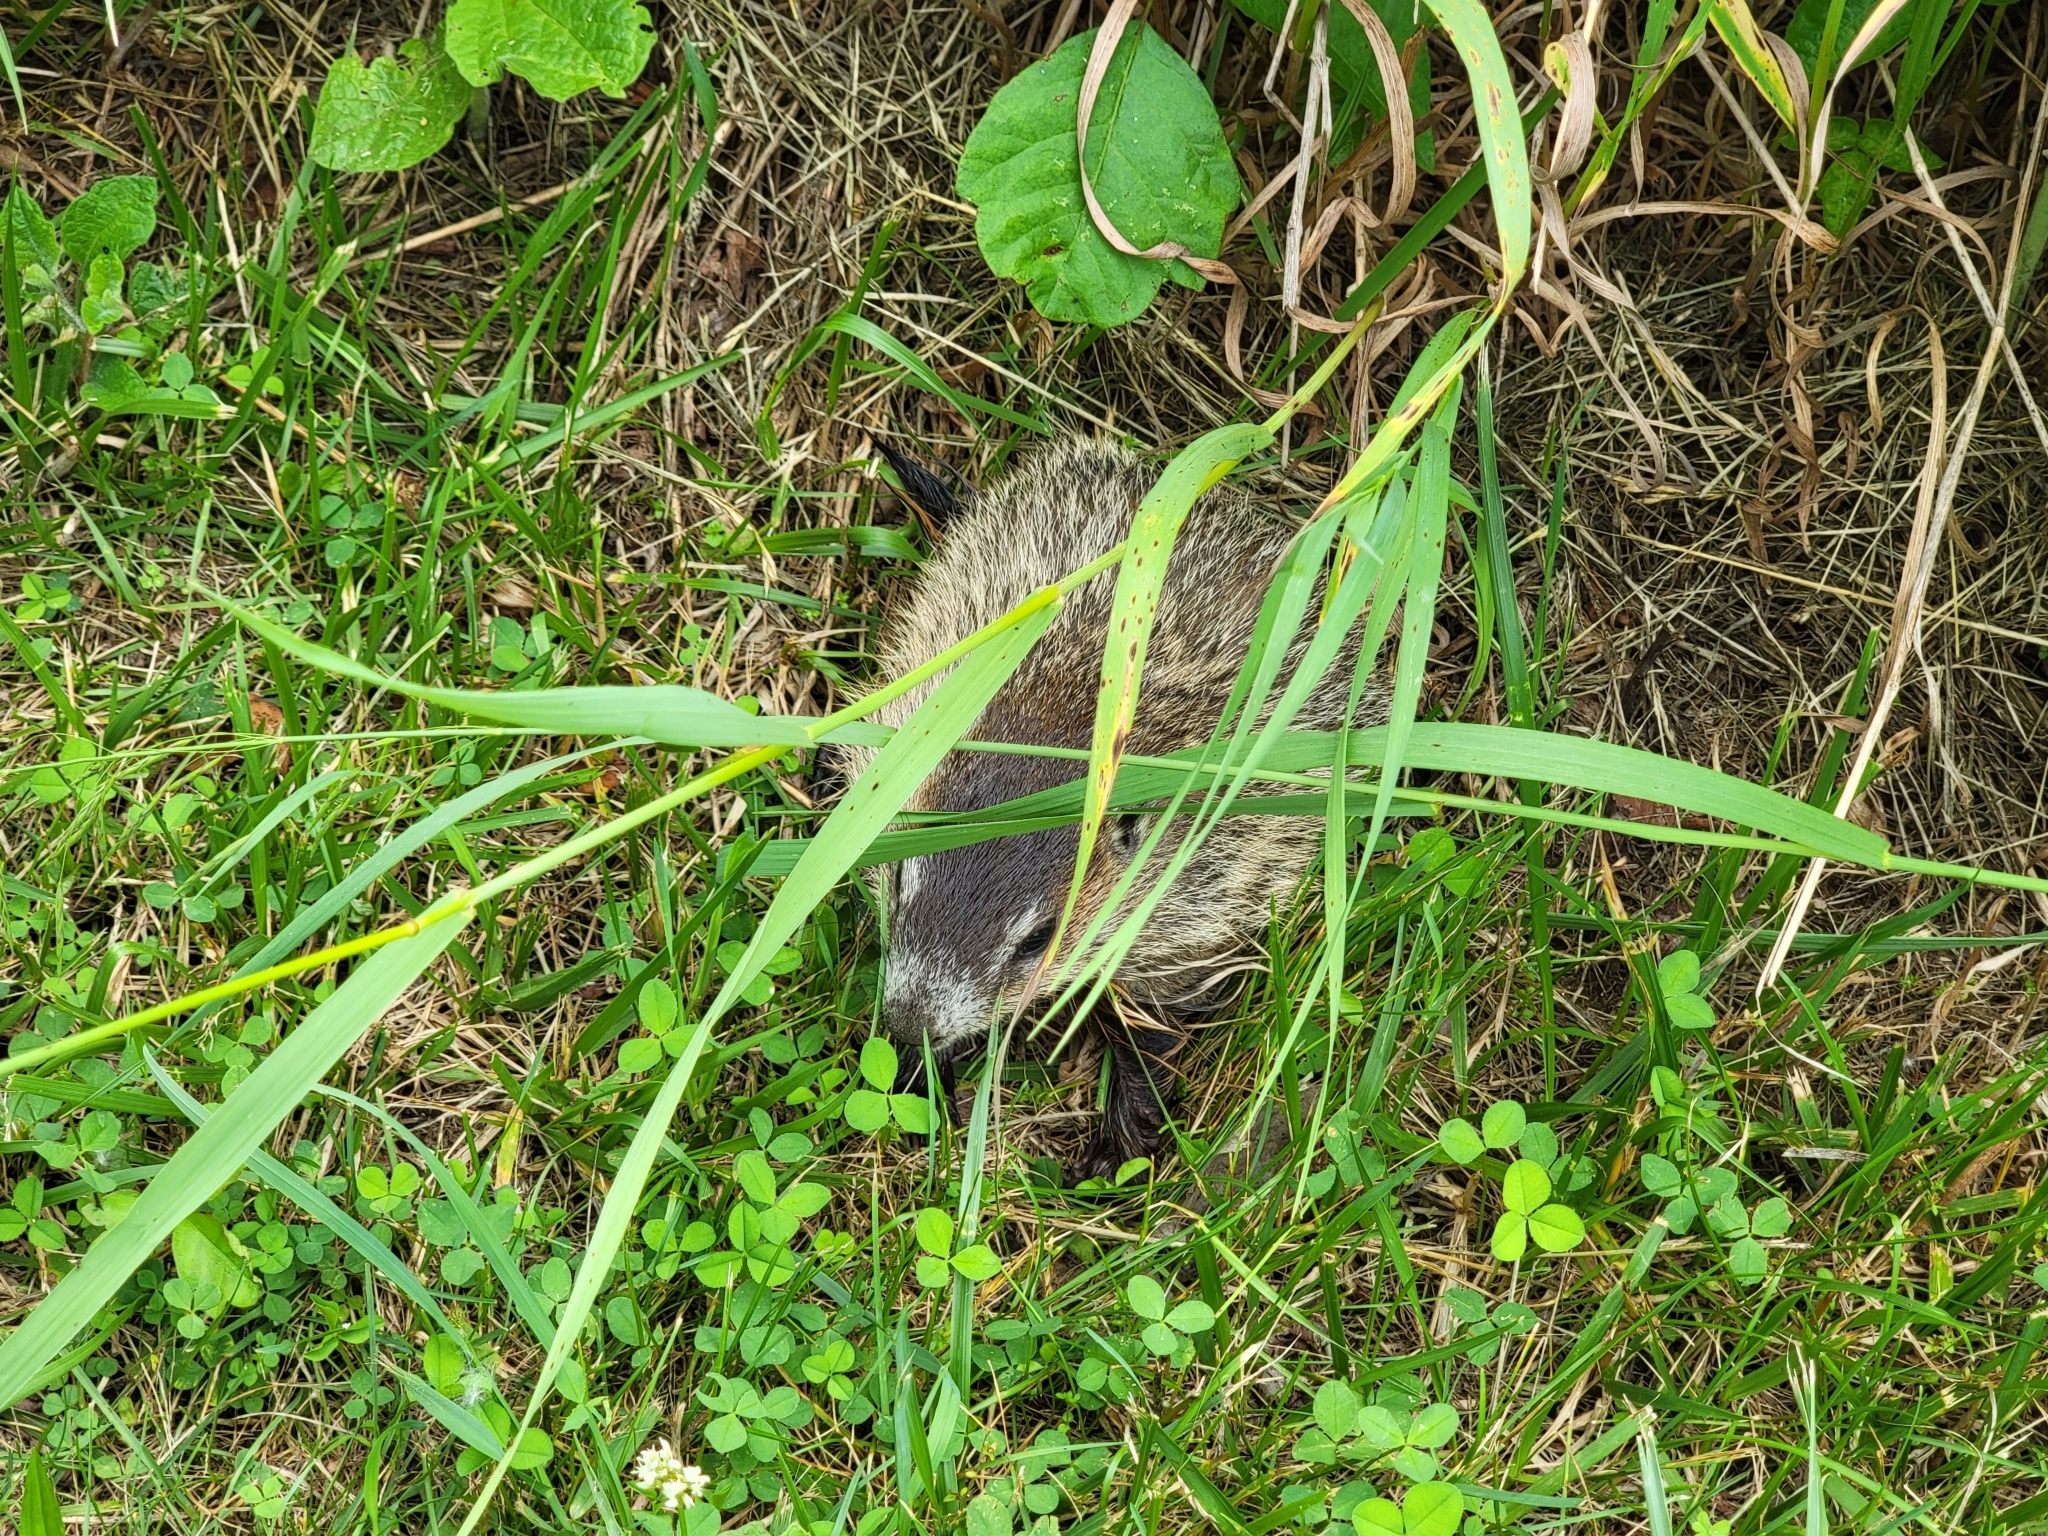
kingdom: Animalia
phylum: Chordata
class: Mammalia
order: Rodentia
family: Sciuridae
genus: Marmota
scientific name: Marmota monax
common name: Groundhog
